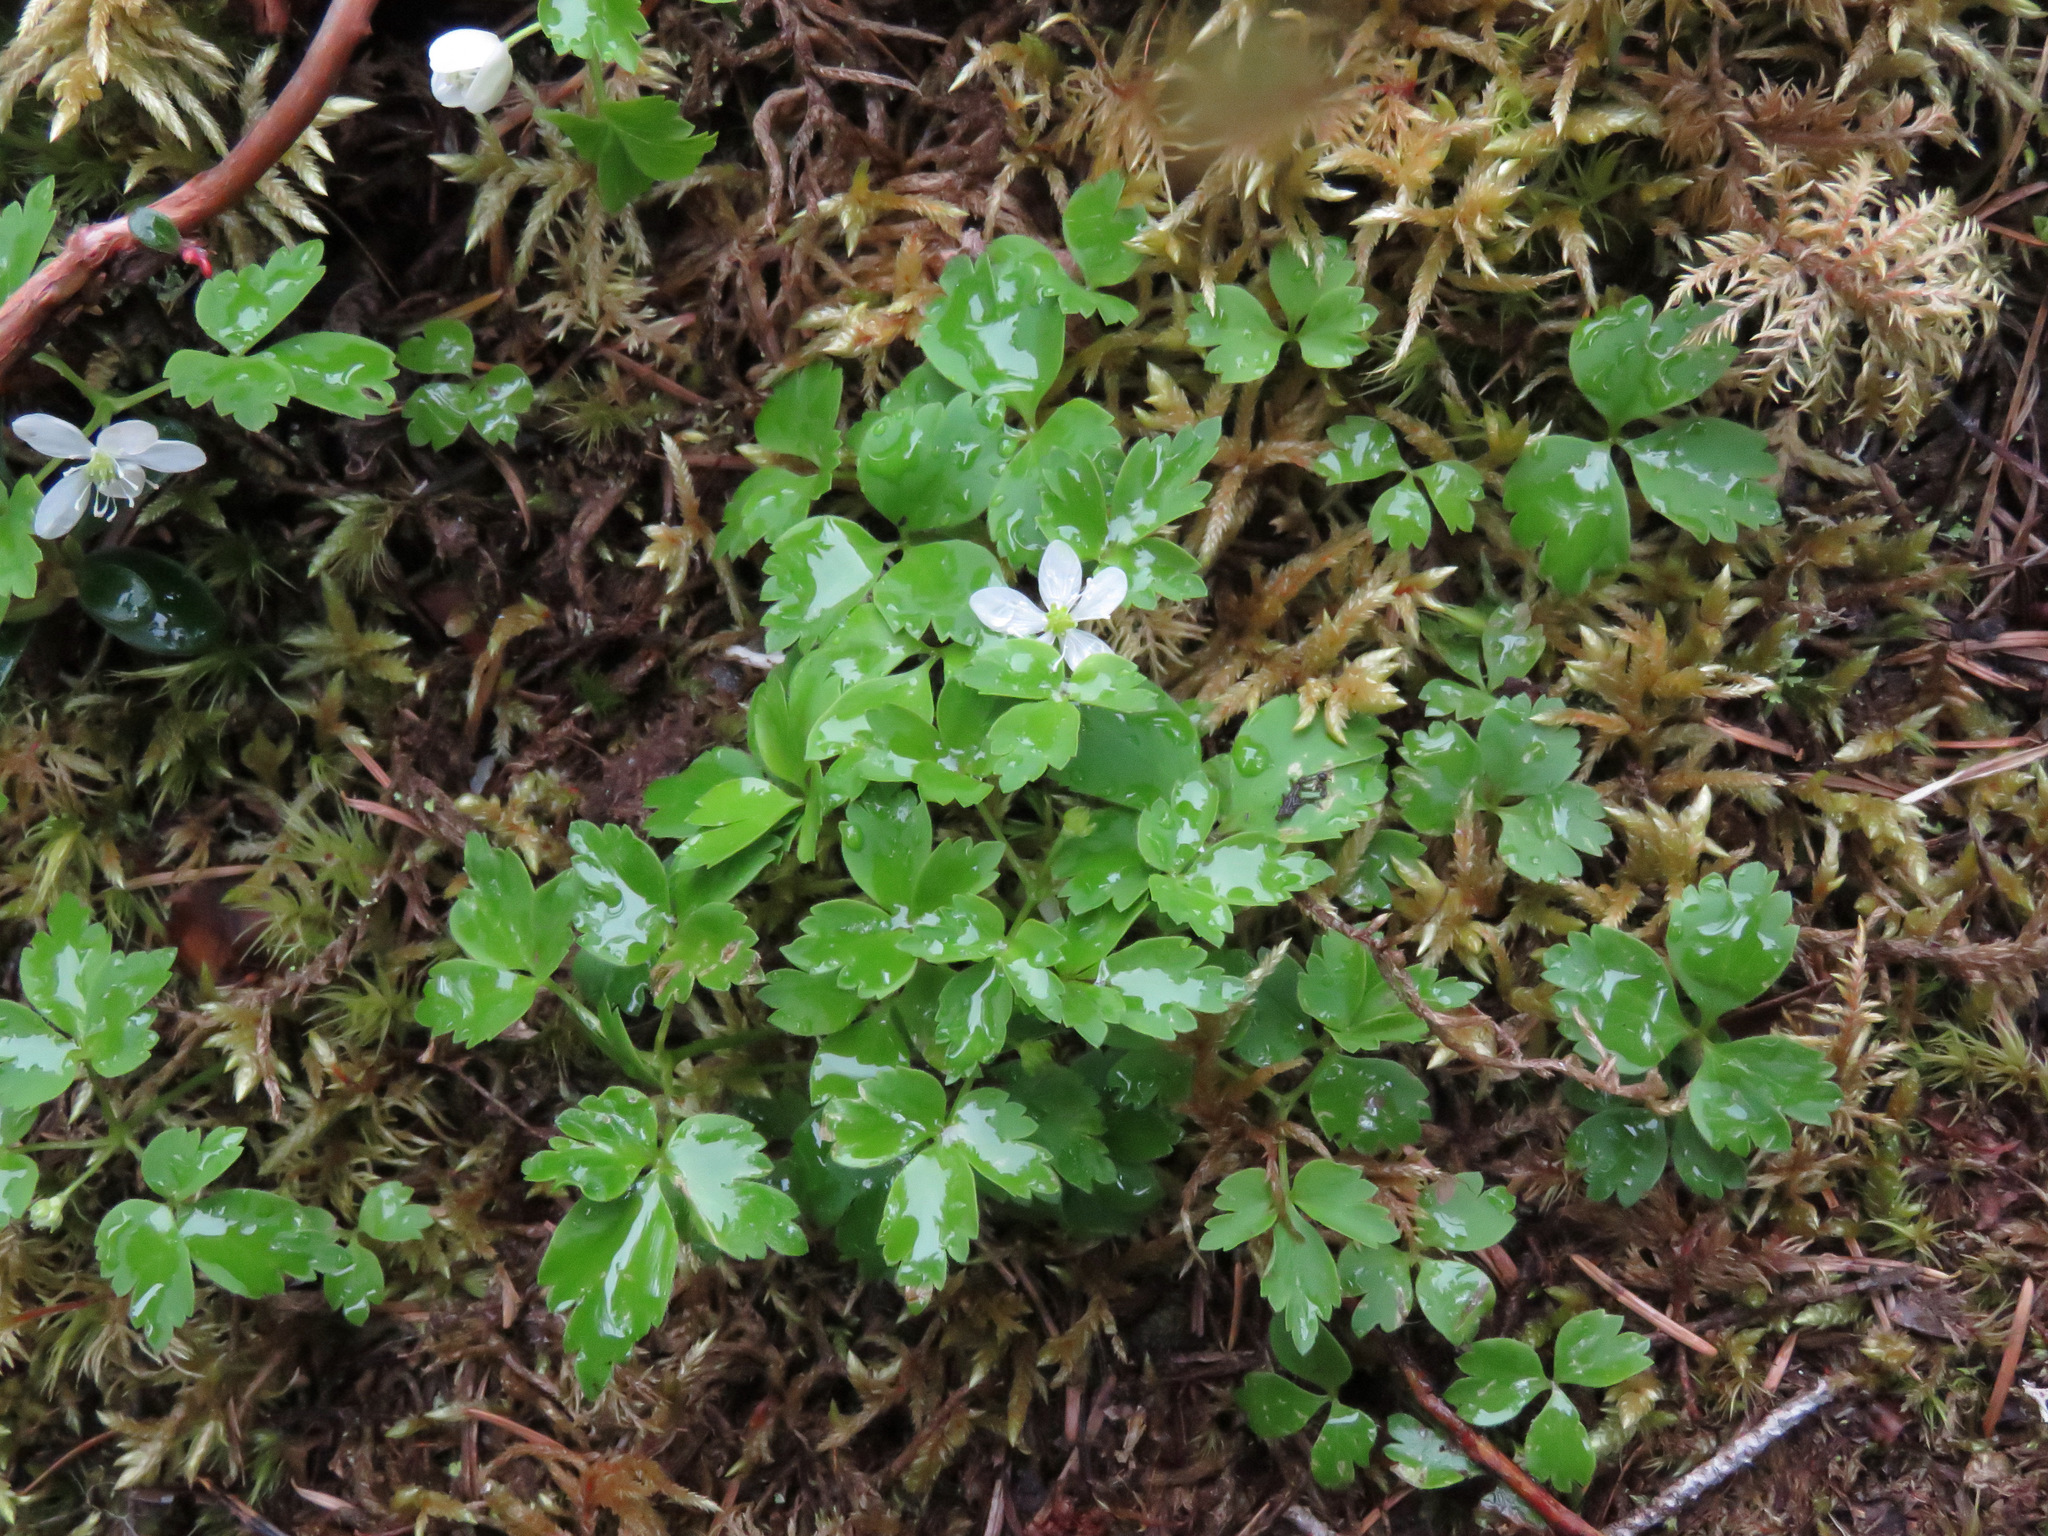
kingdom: Plantae
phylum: Tracheophyta
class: Magnoliopsida
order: Ranunculales
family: Ranunculaceae
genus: Anemone
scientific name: Anemone
